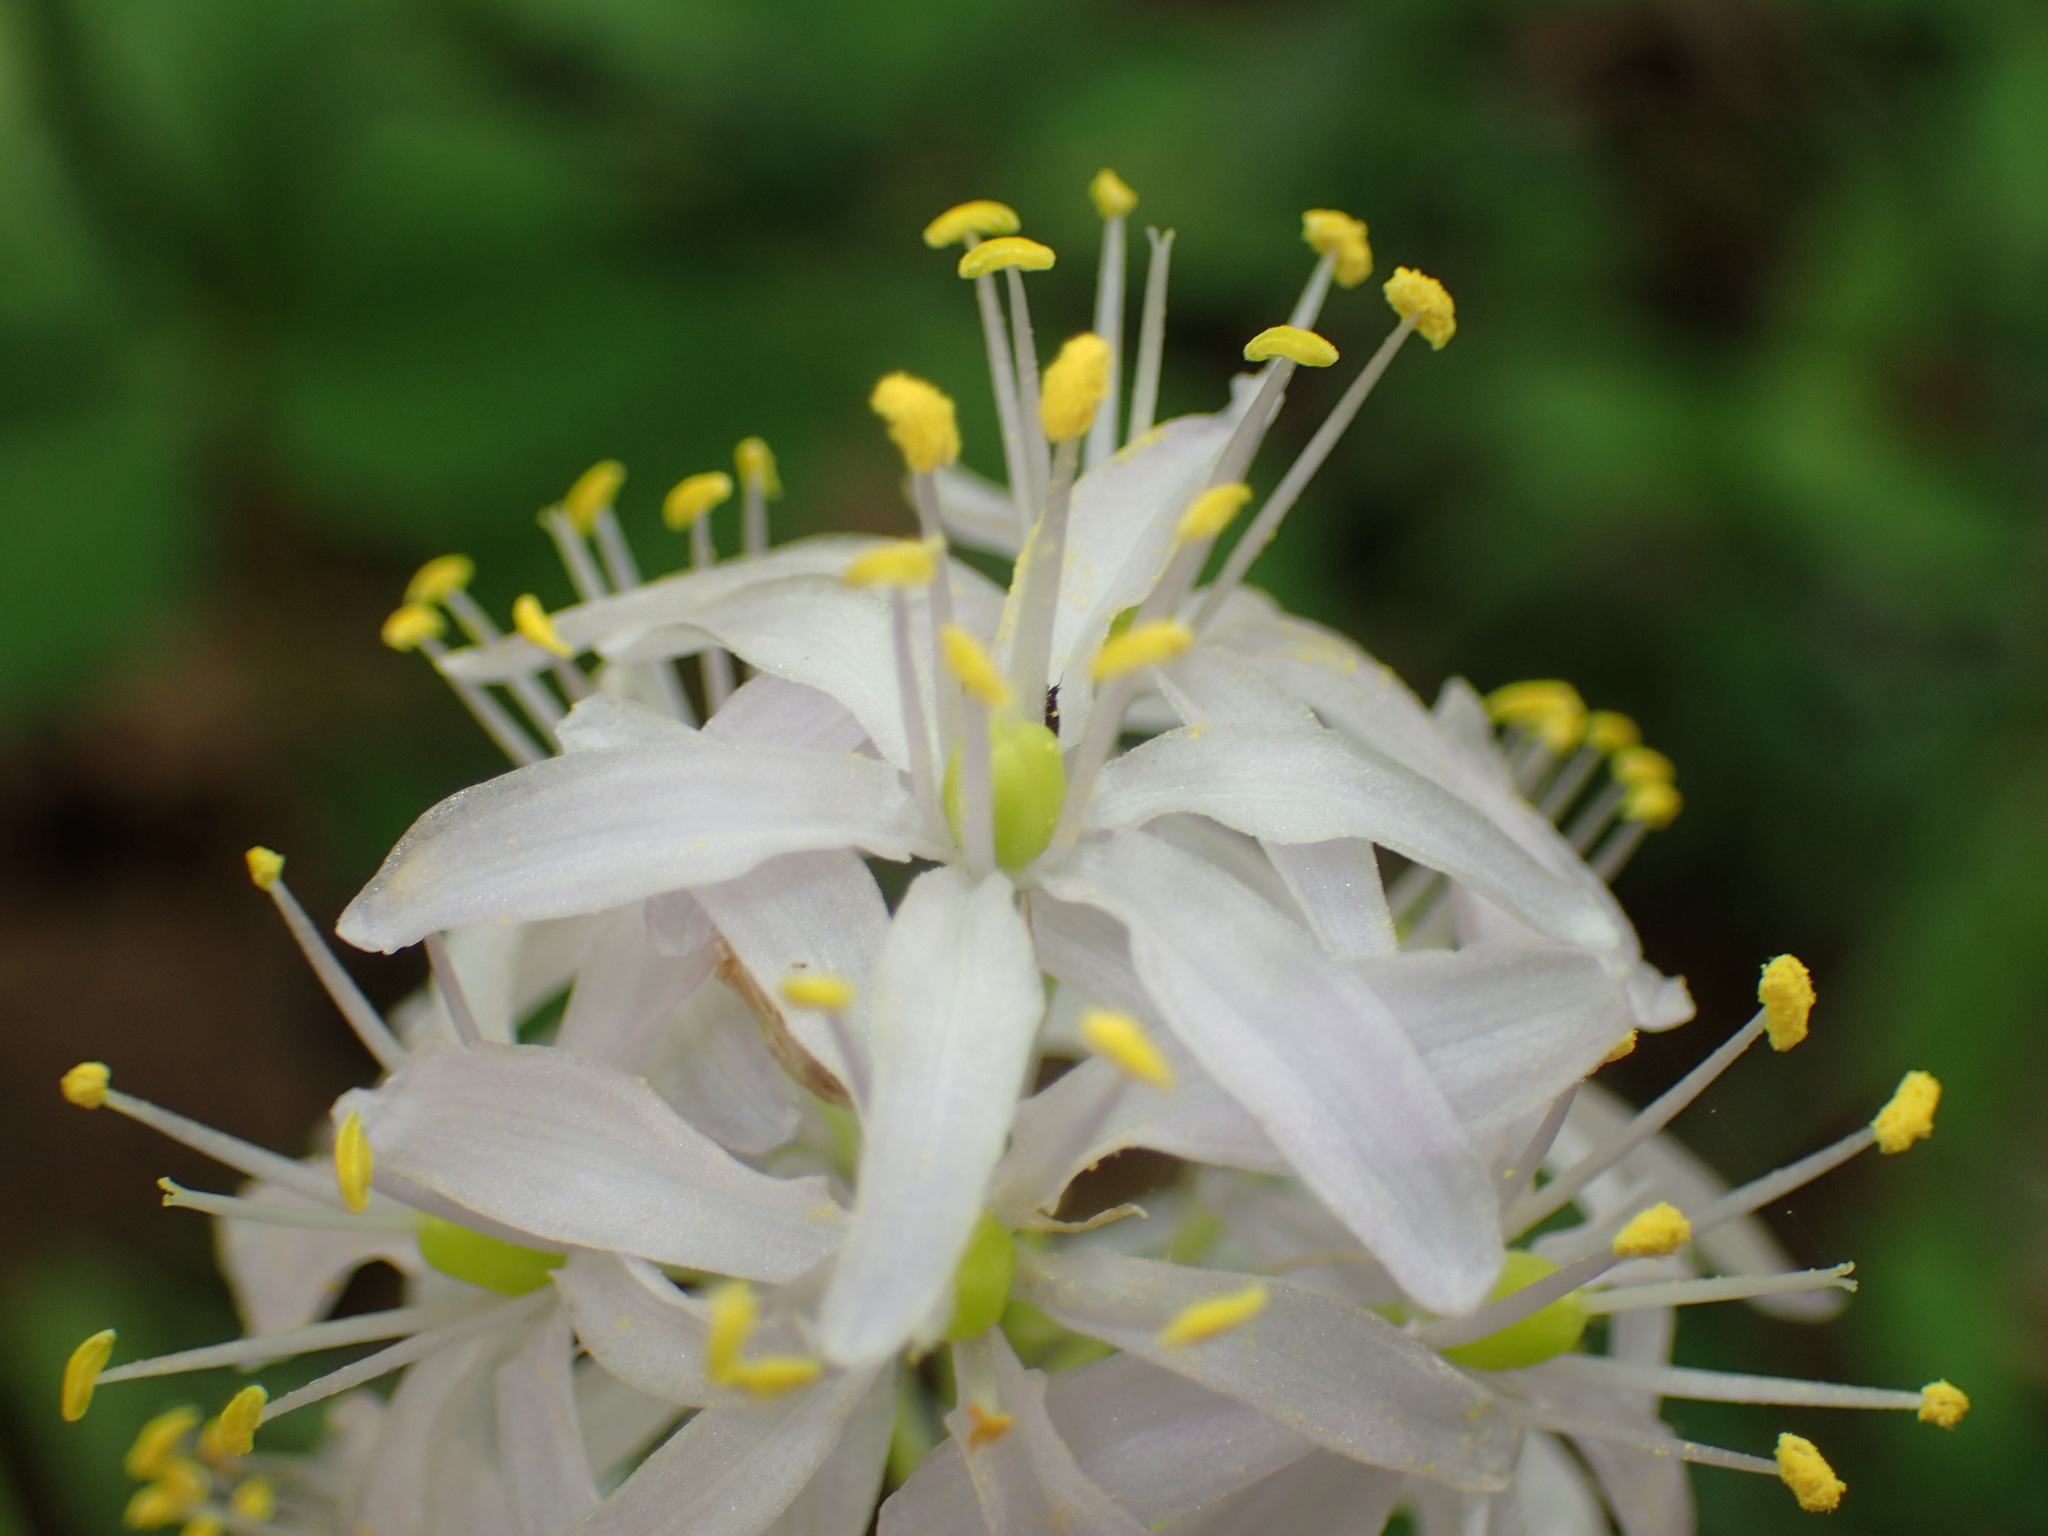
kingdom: Plantae
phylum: Tracheophyta
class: Liliopsida
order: Asparagales
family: Asparagaceae
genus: Camassia
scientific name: Camassia scilloides
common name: Wild hyacinth
